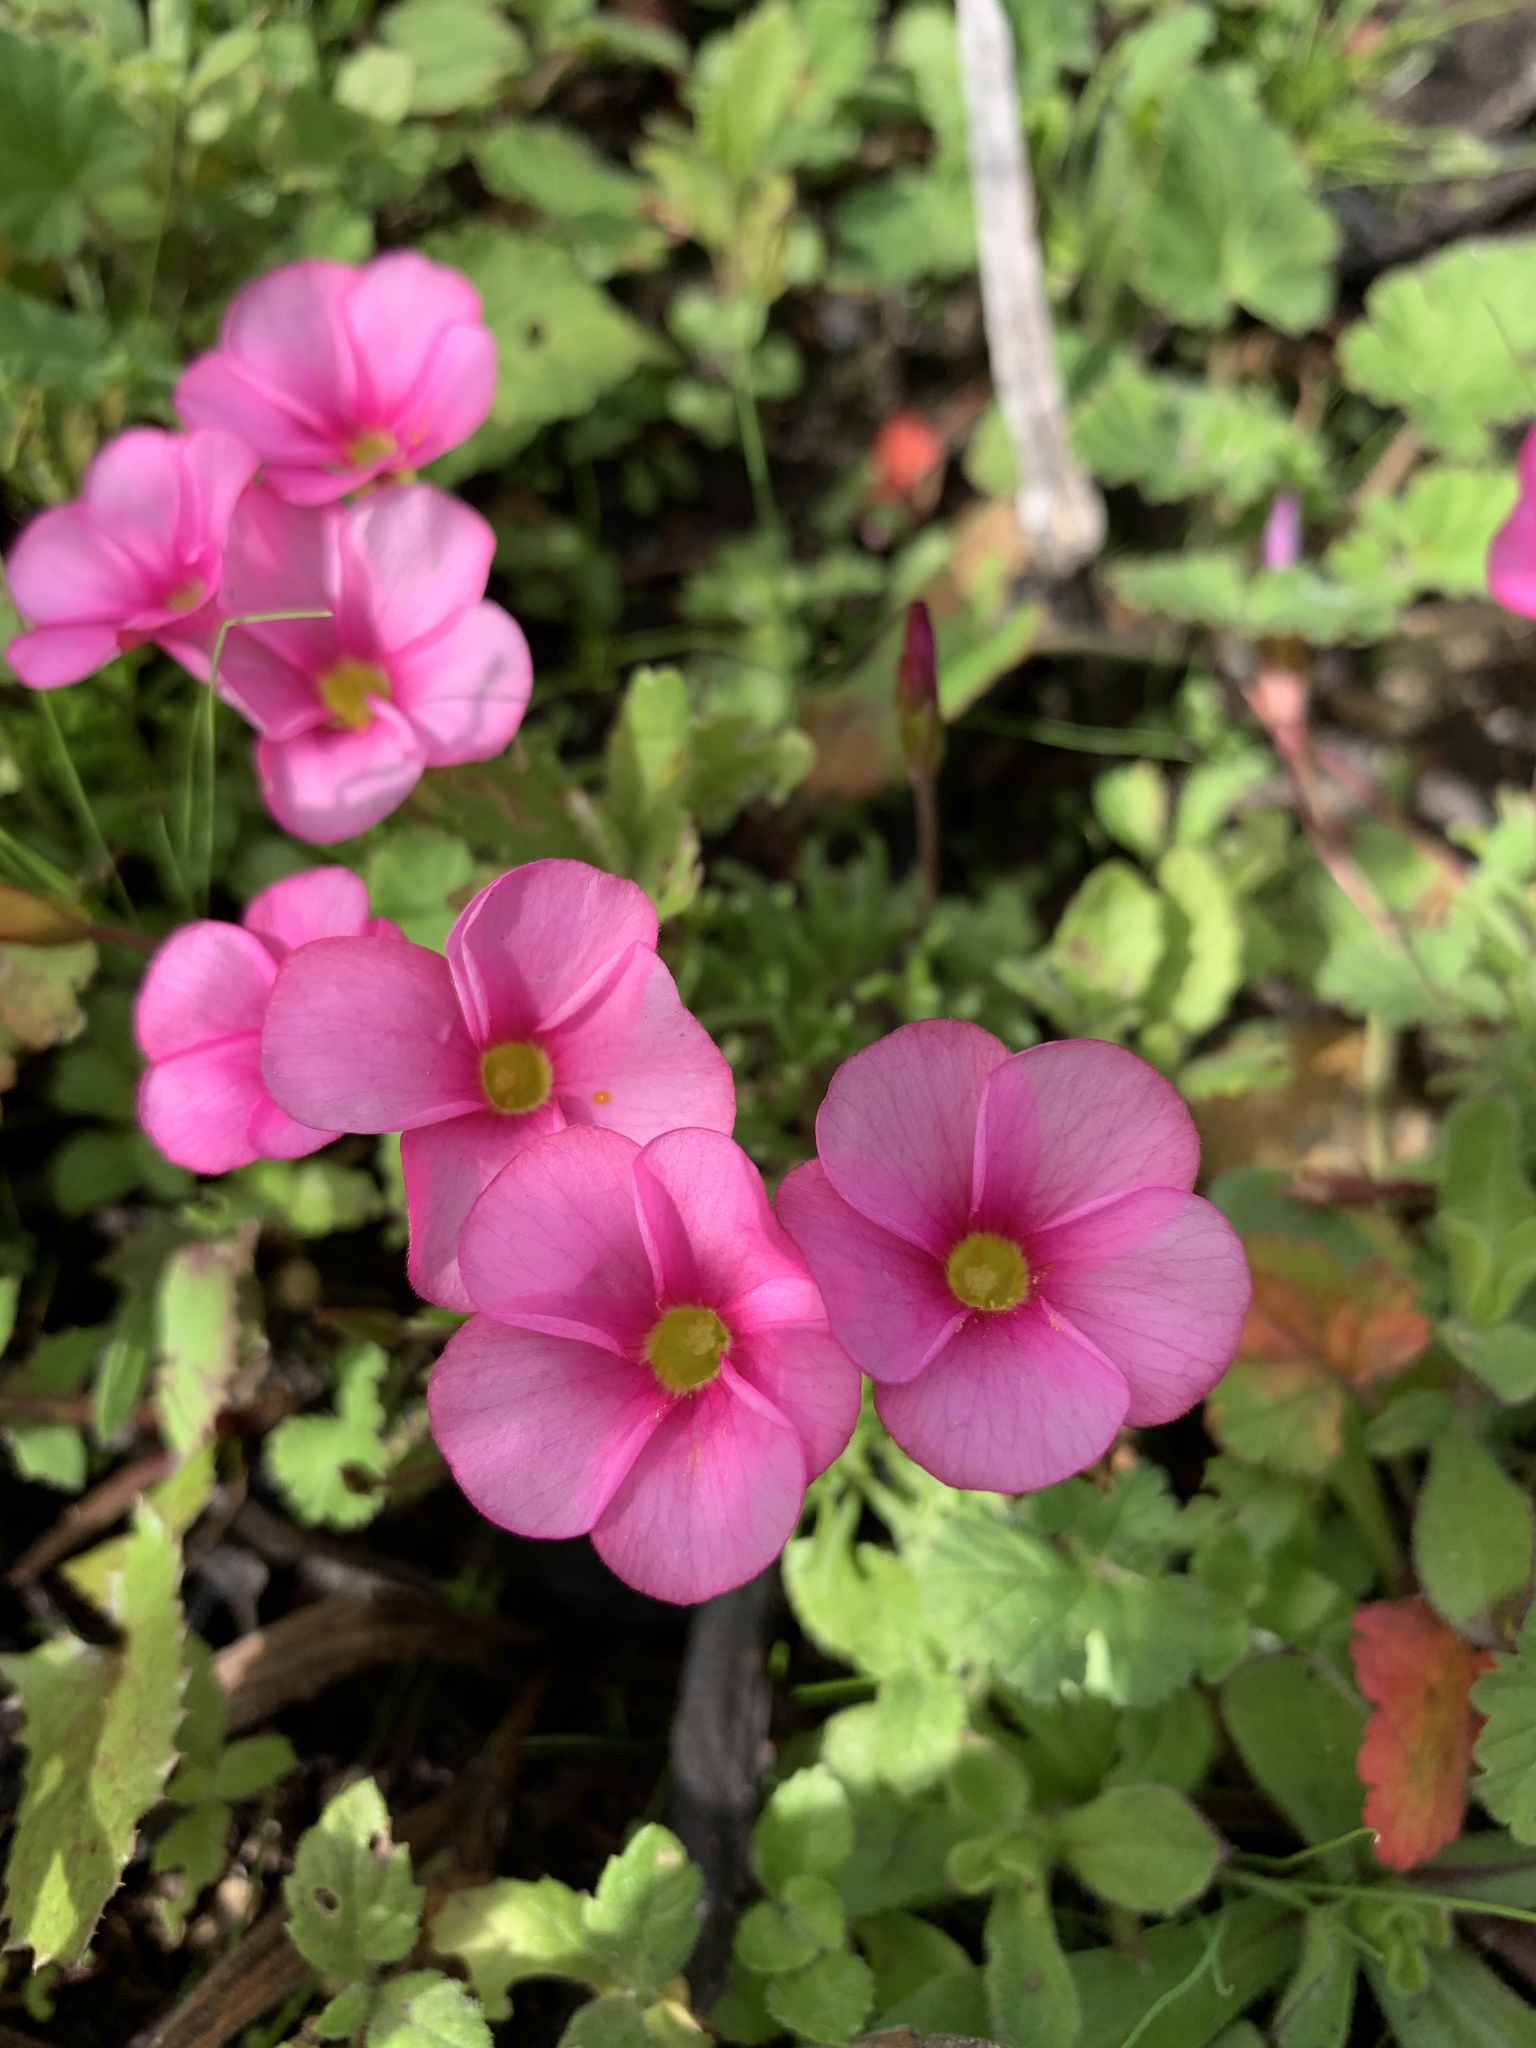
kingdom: Plantae
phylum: Tracheophyta
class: Magnoliopsida
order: Oxalidales
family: Oxalidaceae
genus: Oxalis
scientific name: Oxalis glabra
